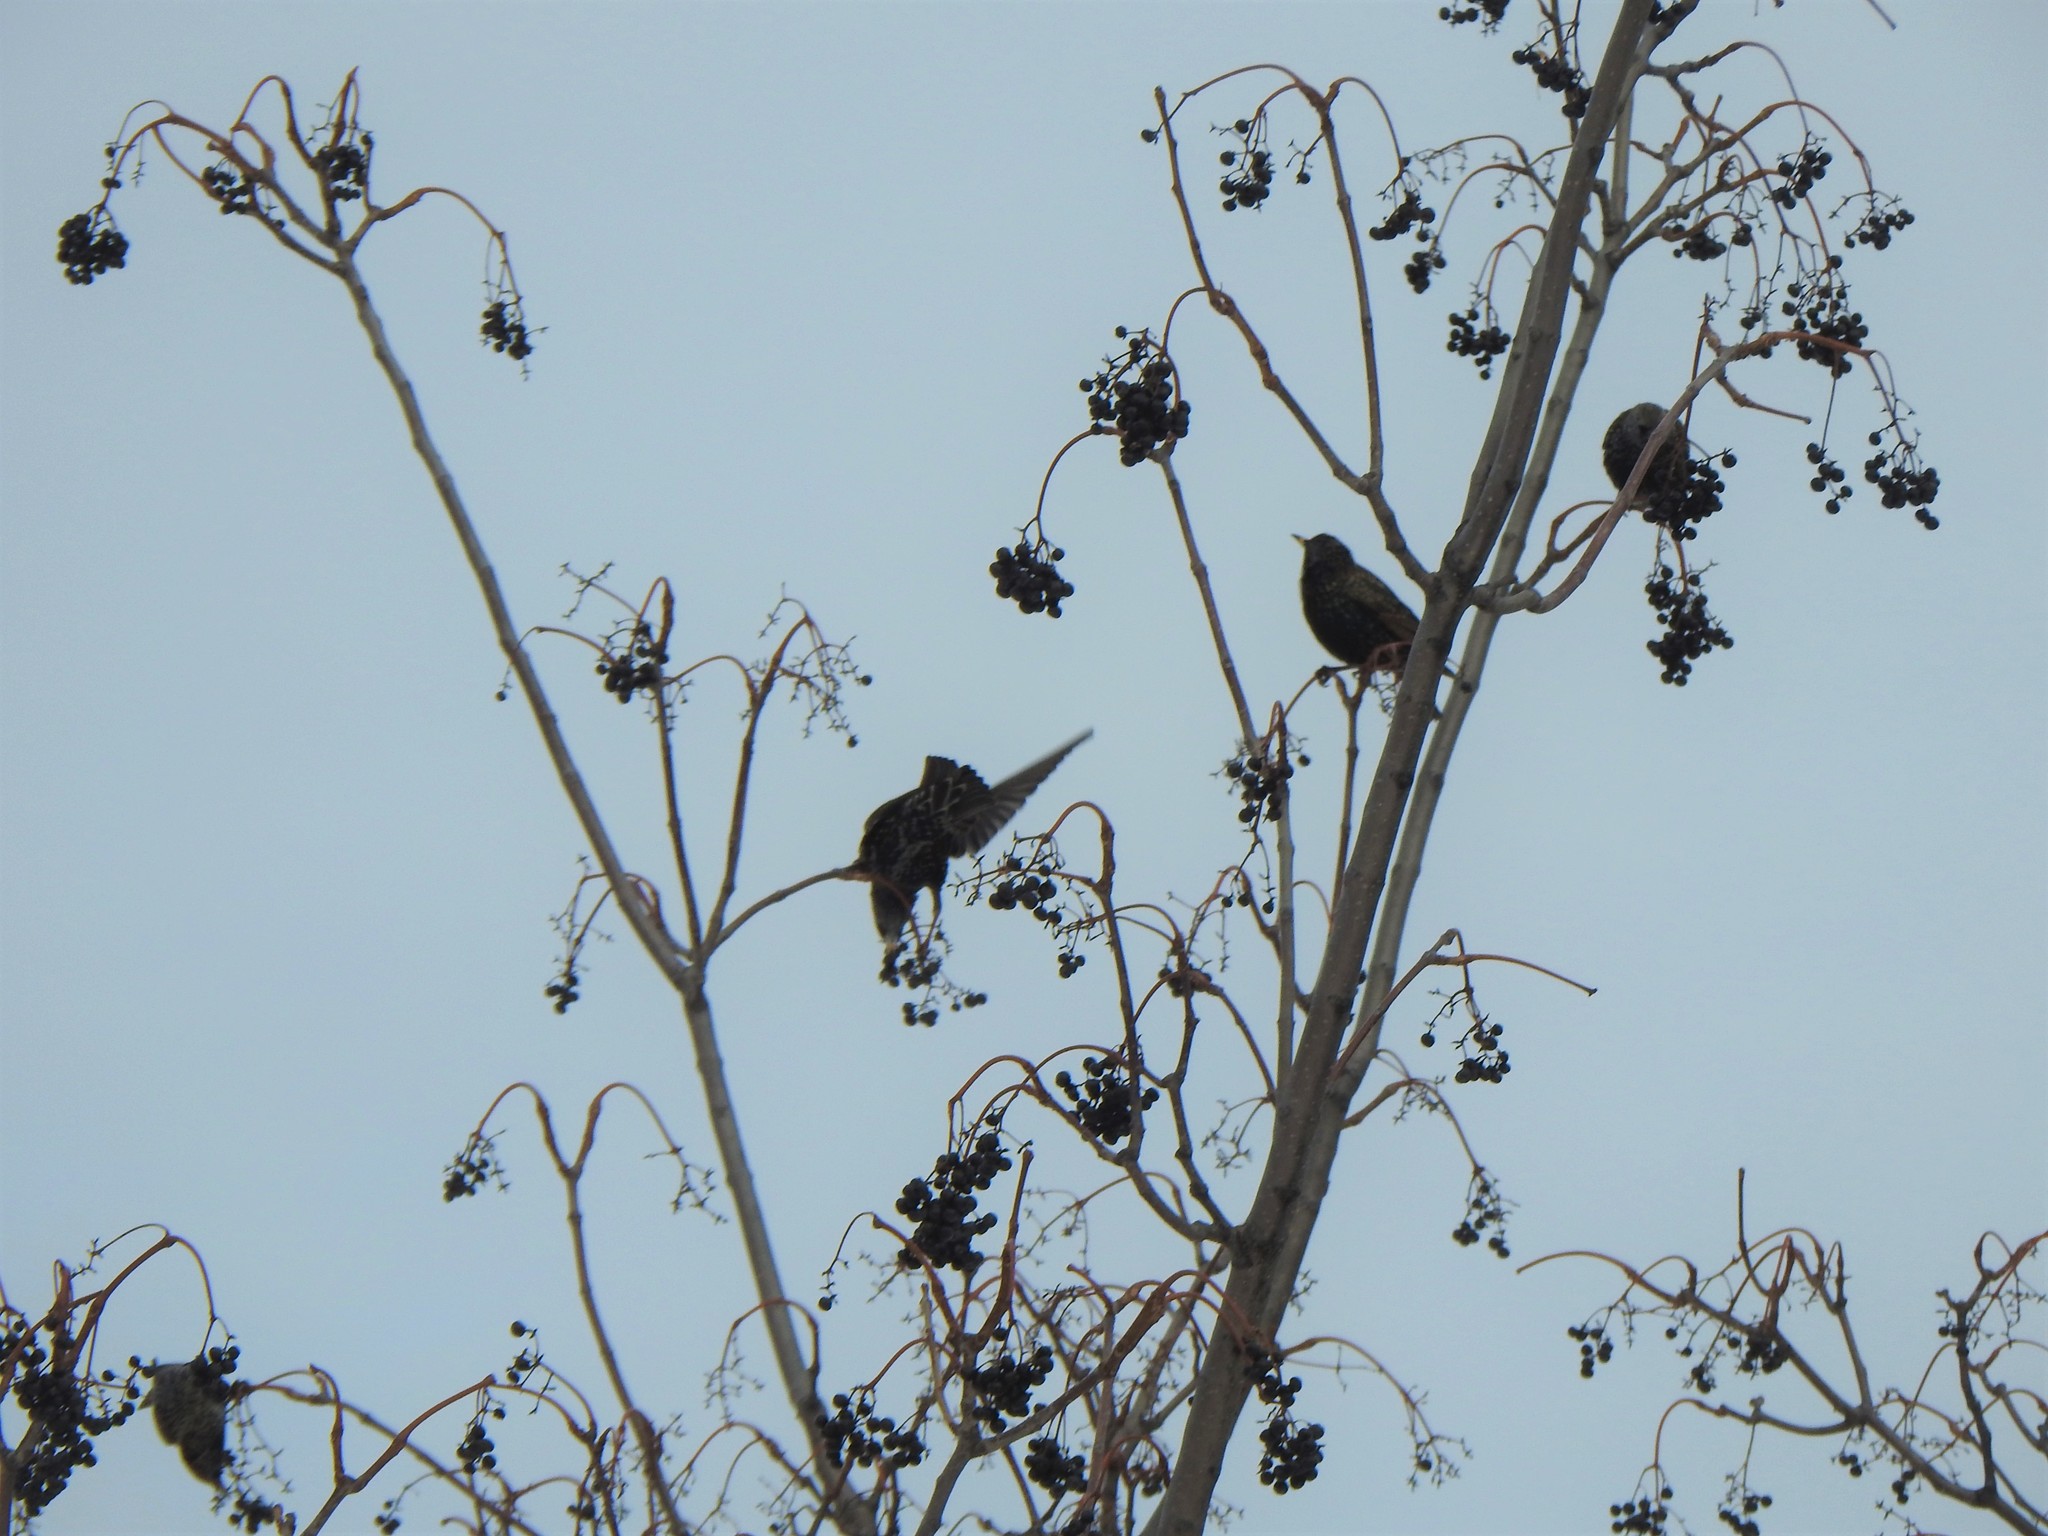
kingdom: Animalia
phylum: Chordata
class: Aves
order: Passeriformes
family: Sturnidae
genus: Sturnus
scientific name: Sturnus vulgaris
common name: Common starling
